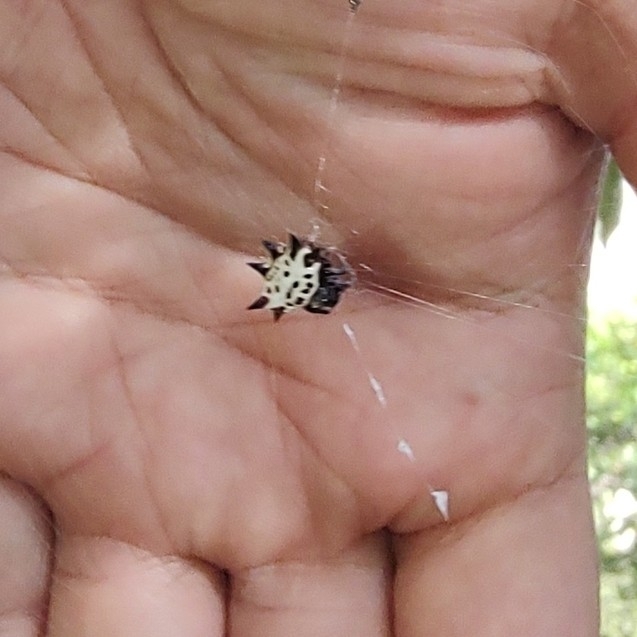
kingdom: Animalia
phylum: Arthropoda
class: Arachnida
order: Araneae
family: Araneidae
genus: Gasteracantha
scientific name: Gasteracantha cancriformis
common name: Orb weavers
